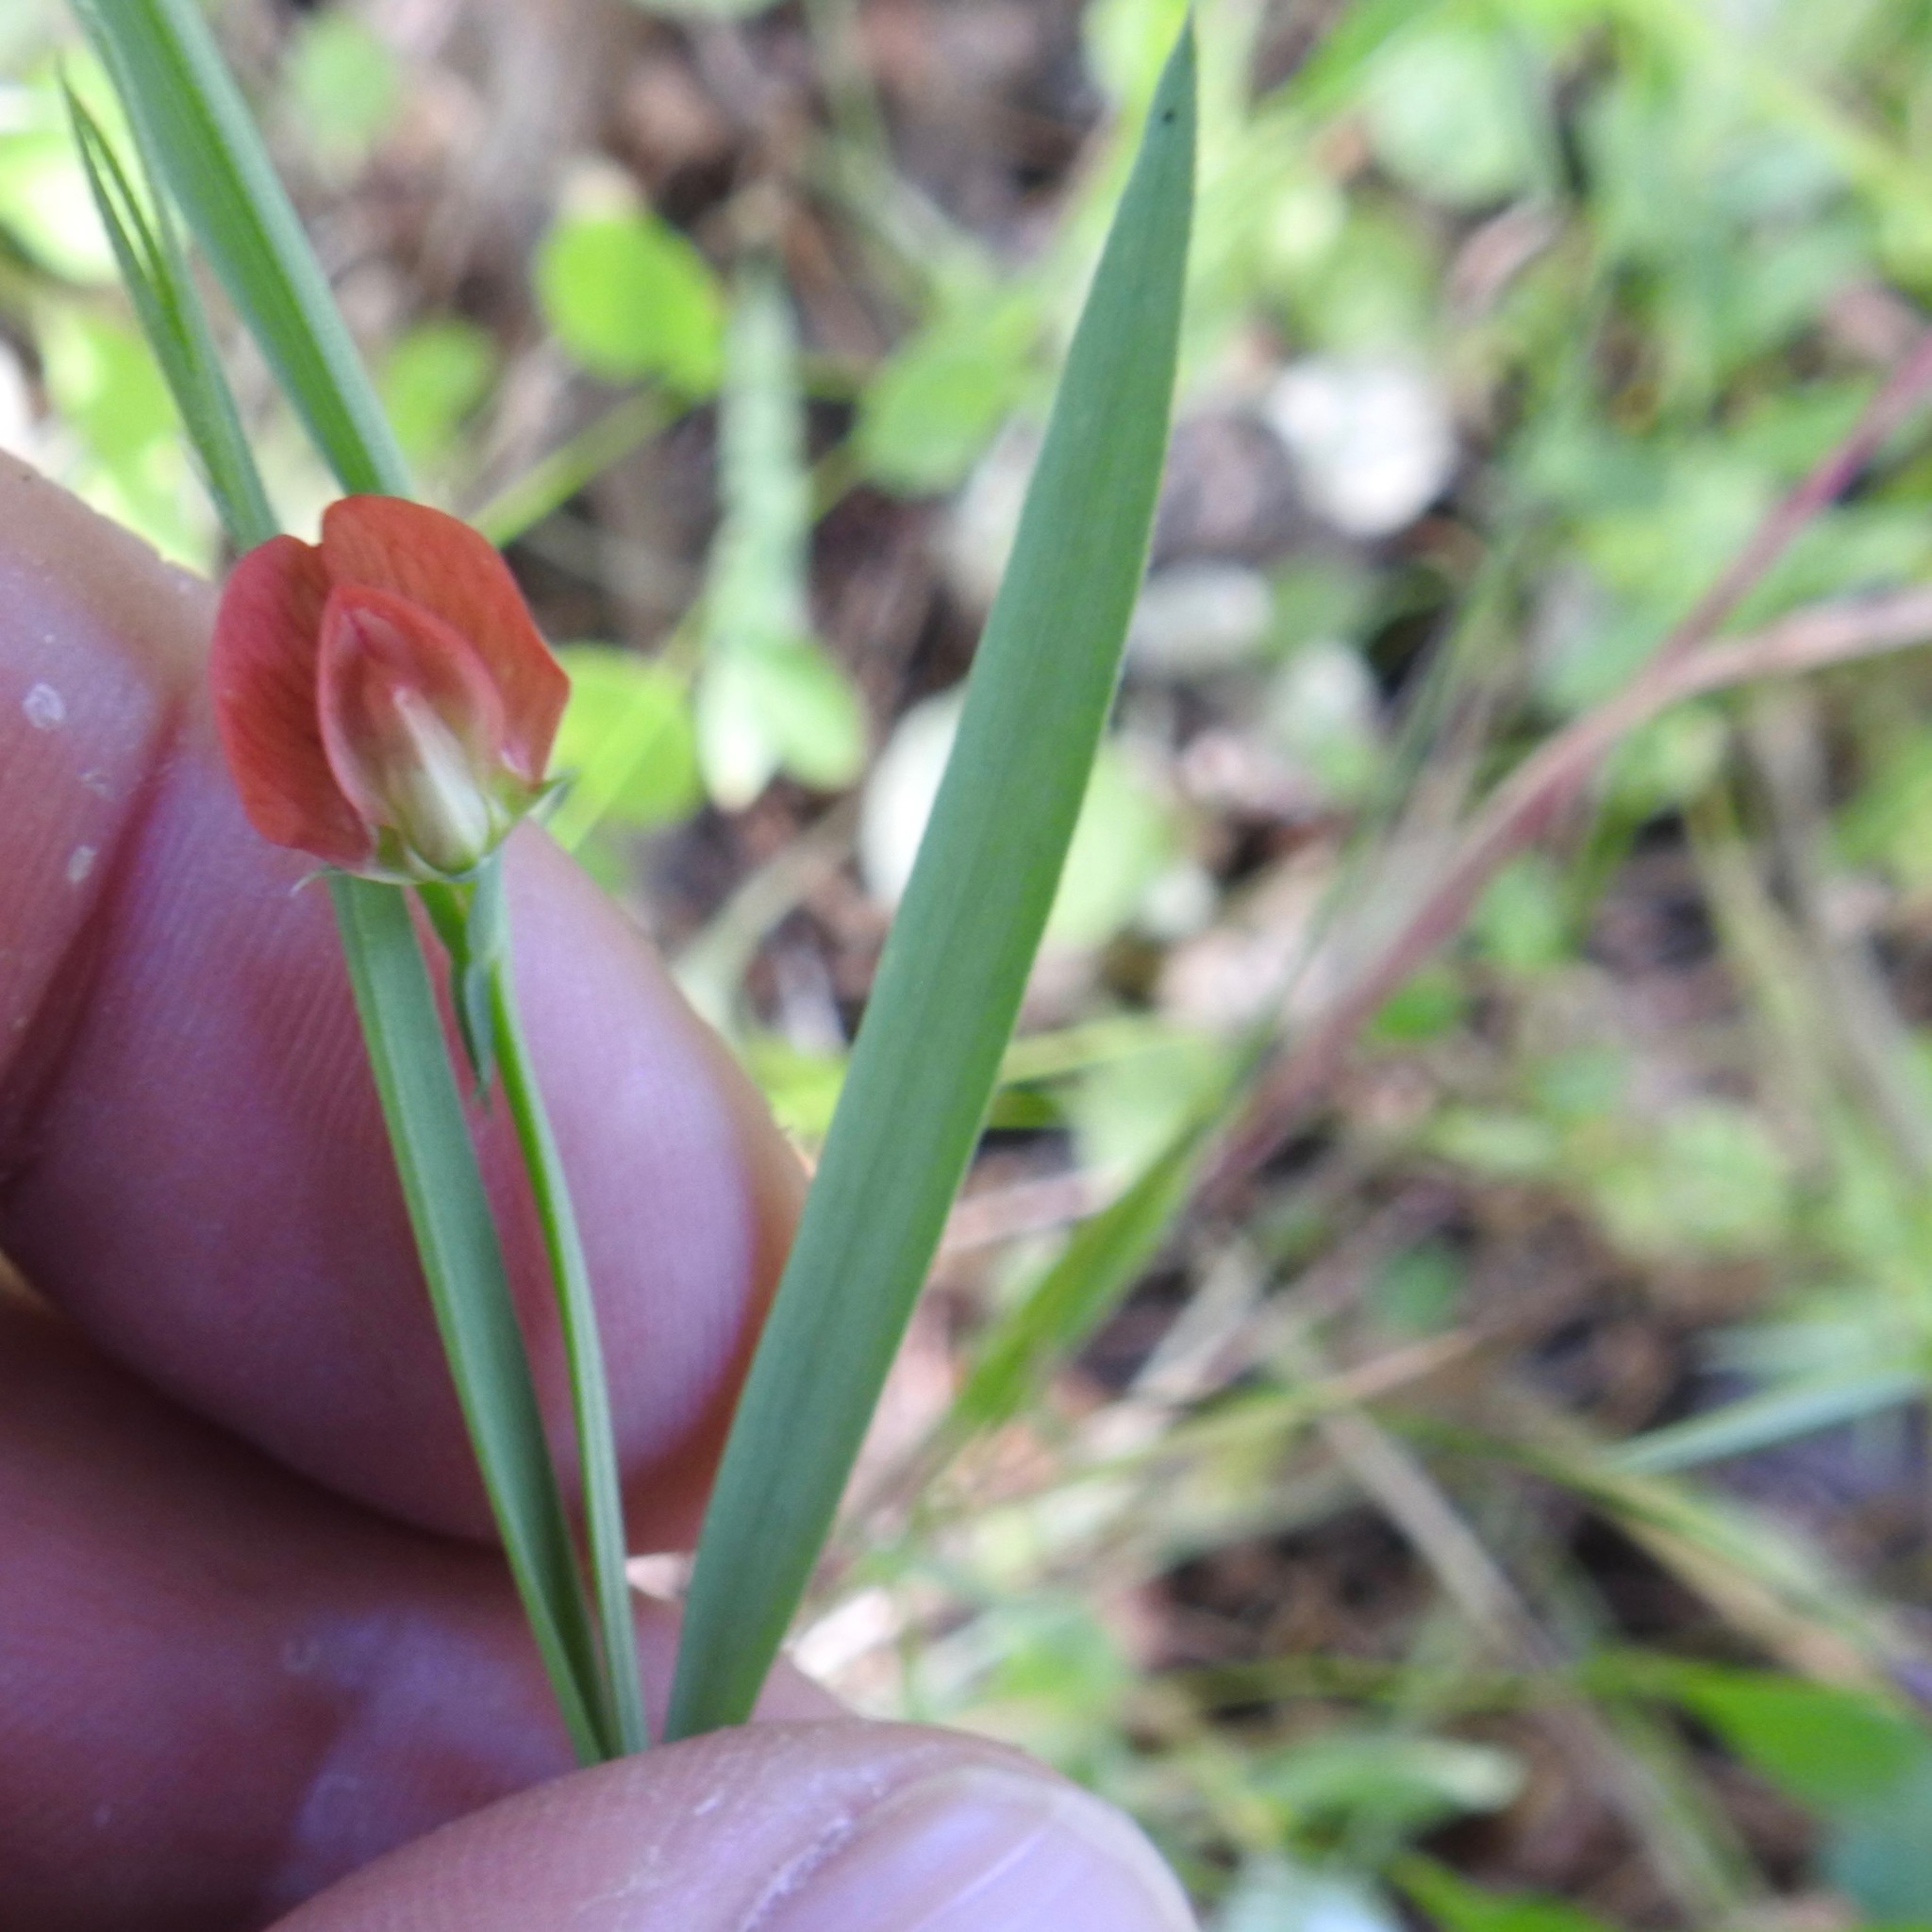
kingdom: Plantae
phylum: Tracheophyta
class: Magnoliopsida
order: Fabales
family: Fabaceae
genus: Lathyrus
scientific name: Lathyrus sphaericus
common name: Grass pea
